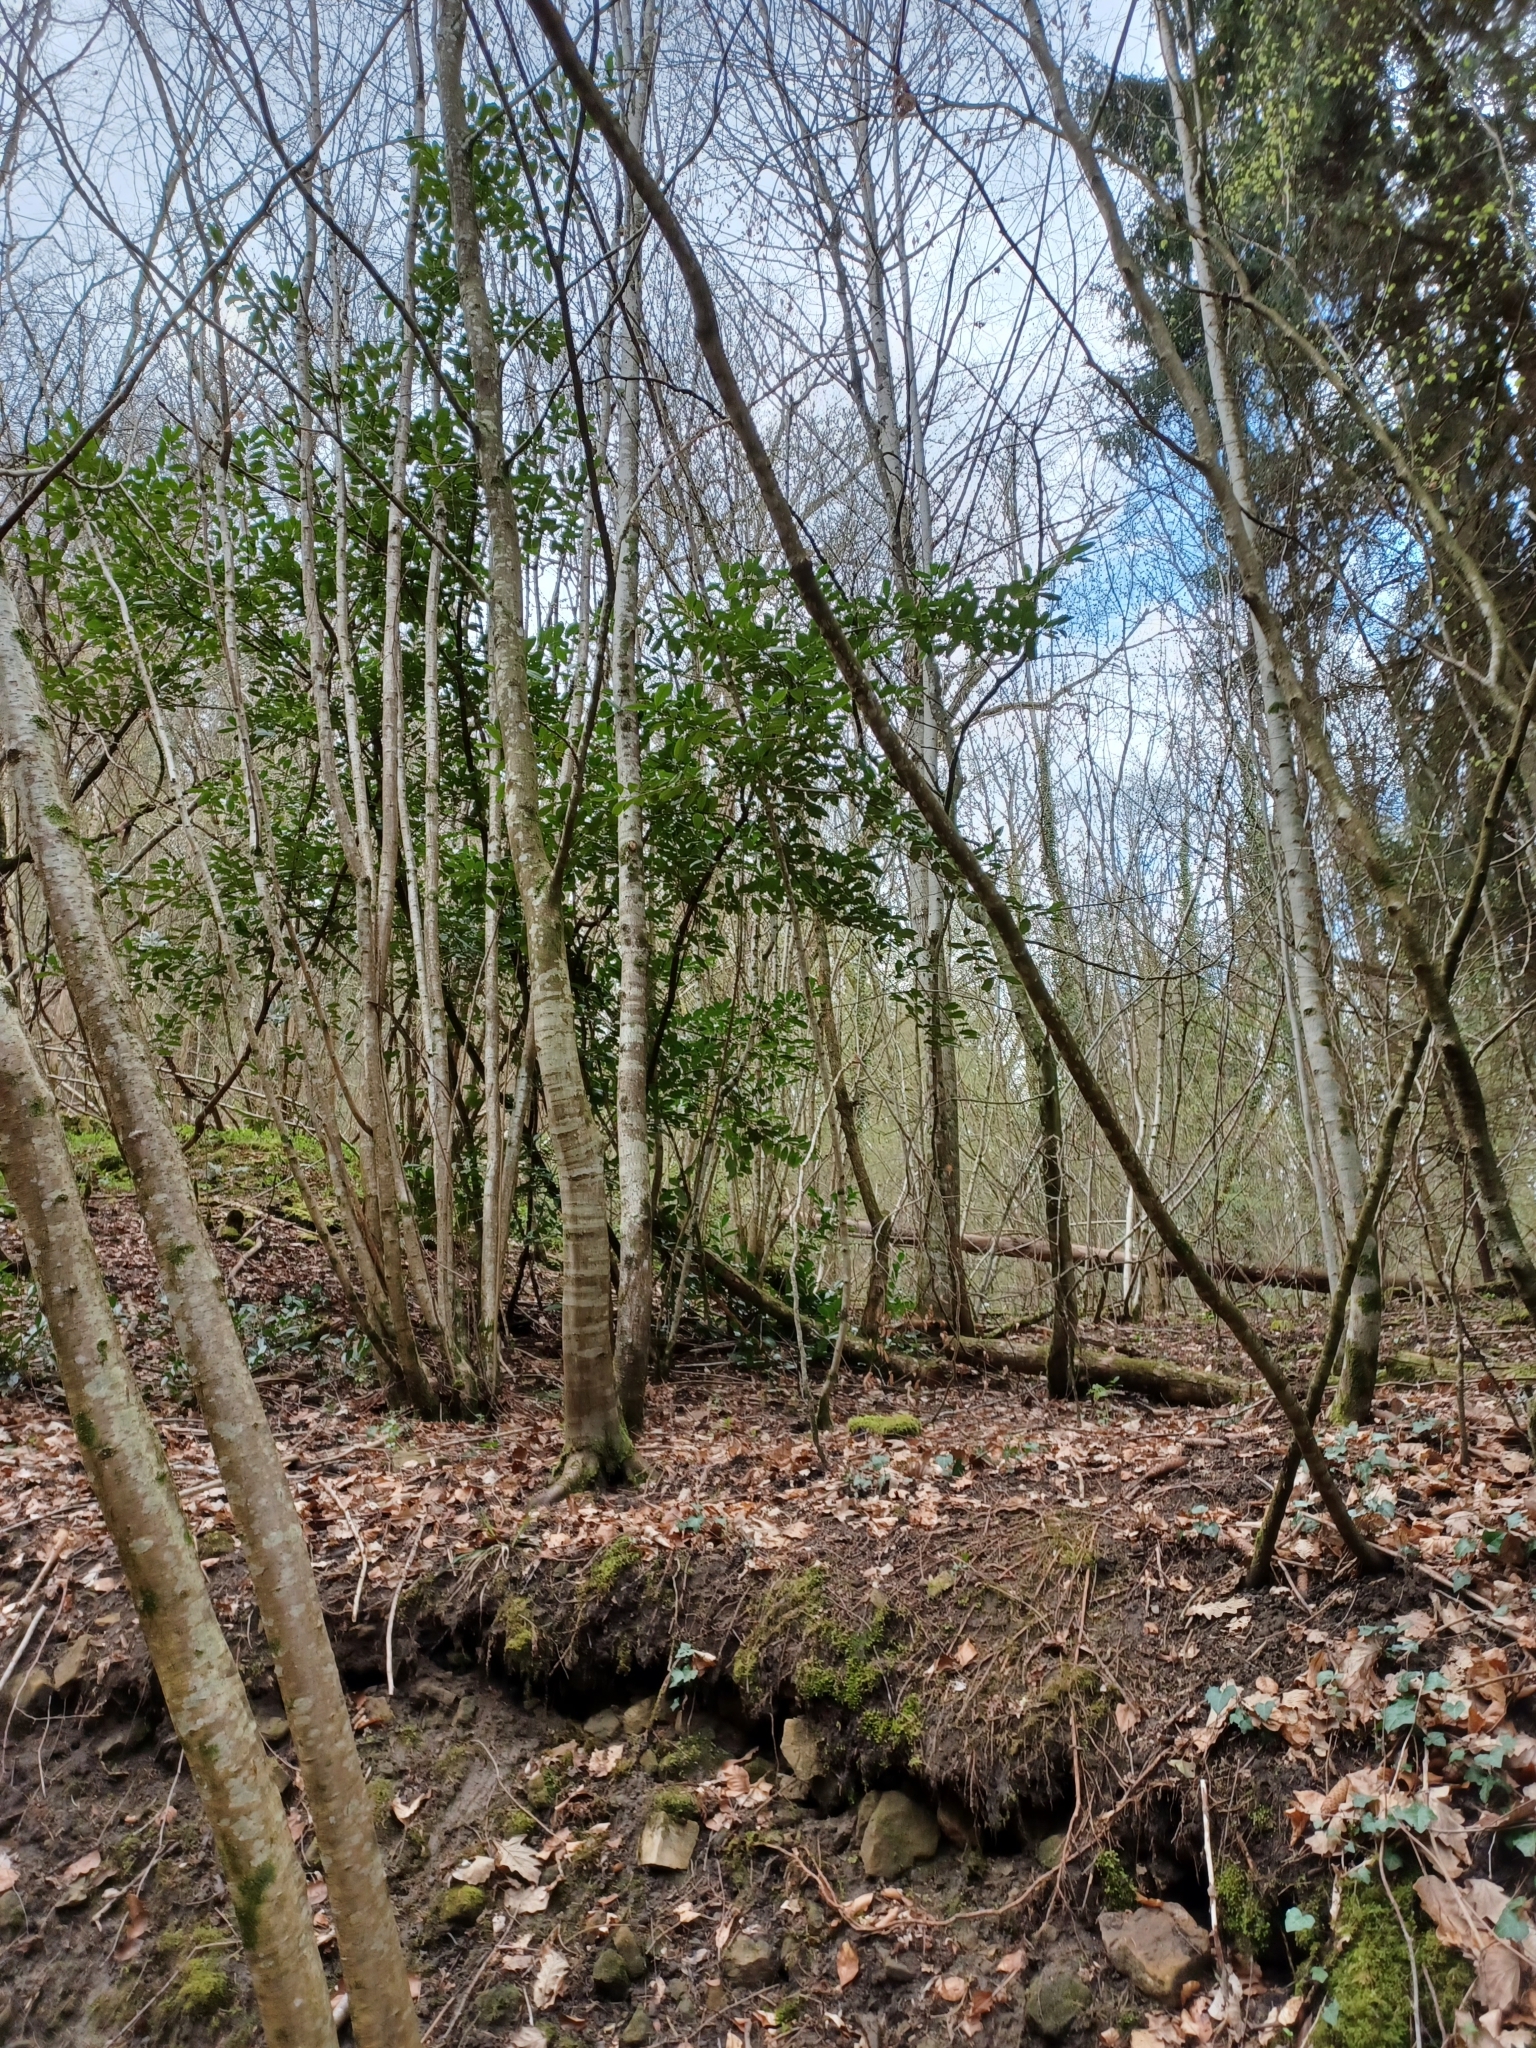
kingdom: Plantae
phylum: Tracheophyta
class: Magnoliopsida
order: Rosales
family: Rosaceae
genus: Prunus
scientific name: Prunus laurocerasus
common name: Cherry laurel
